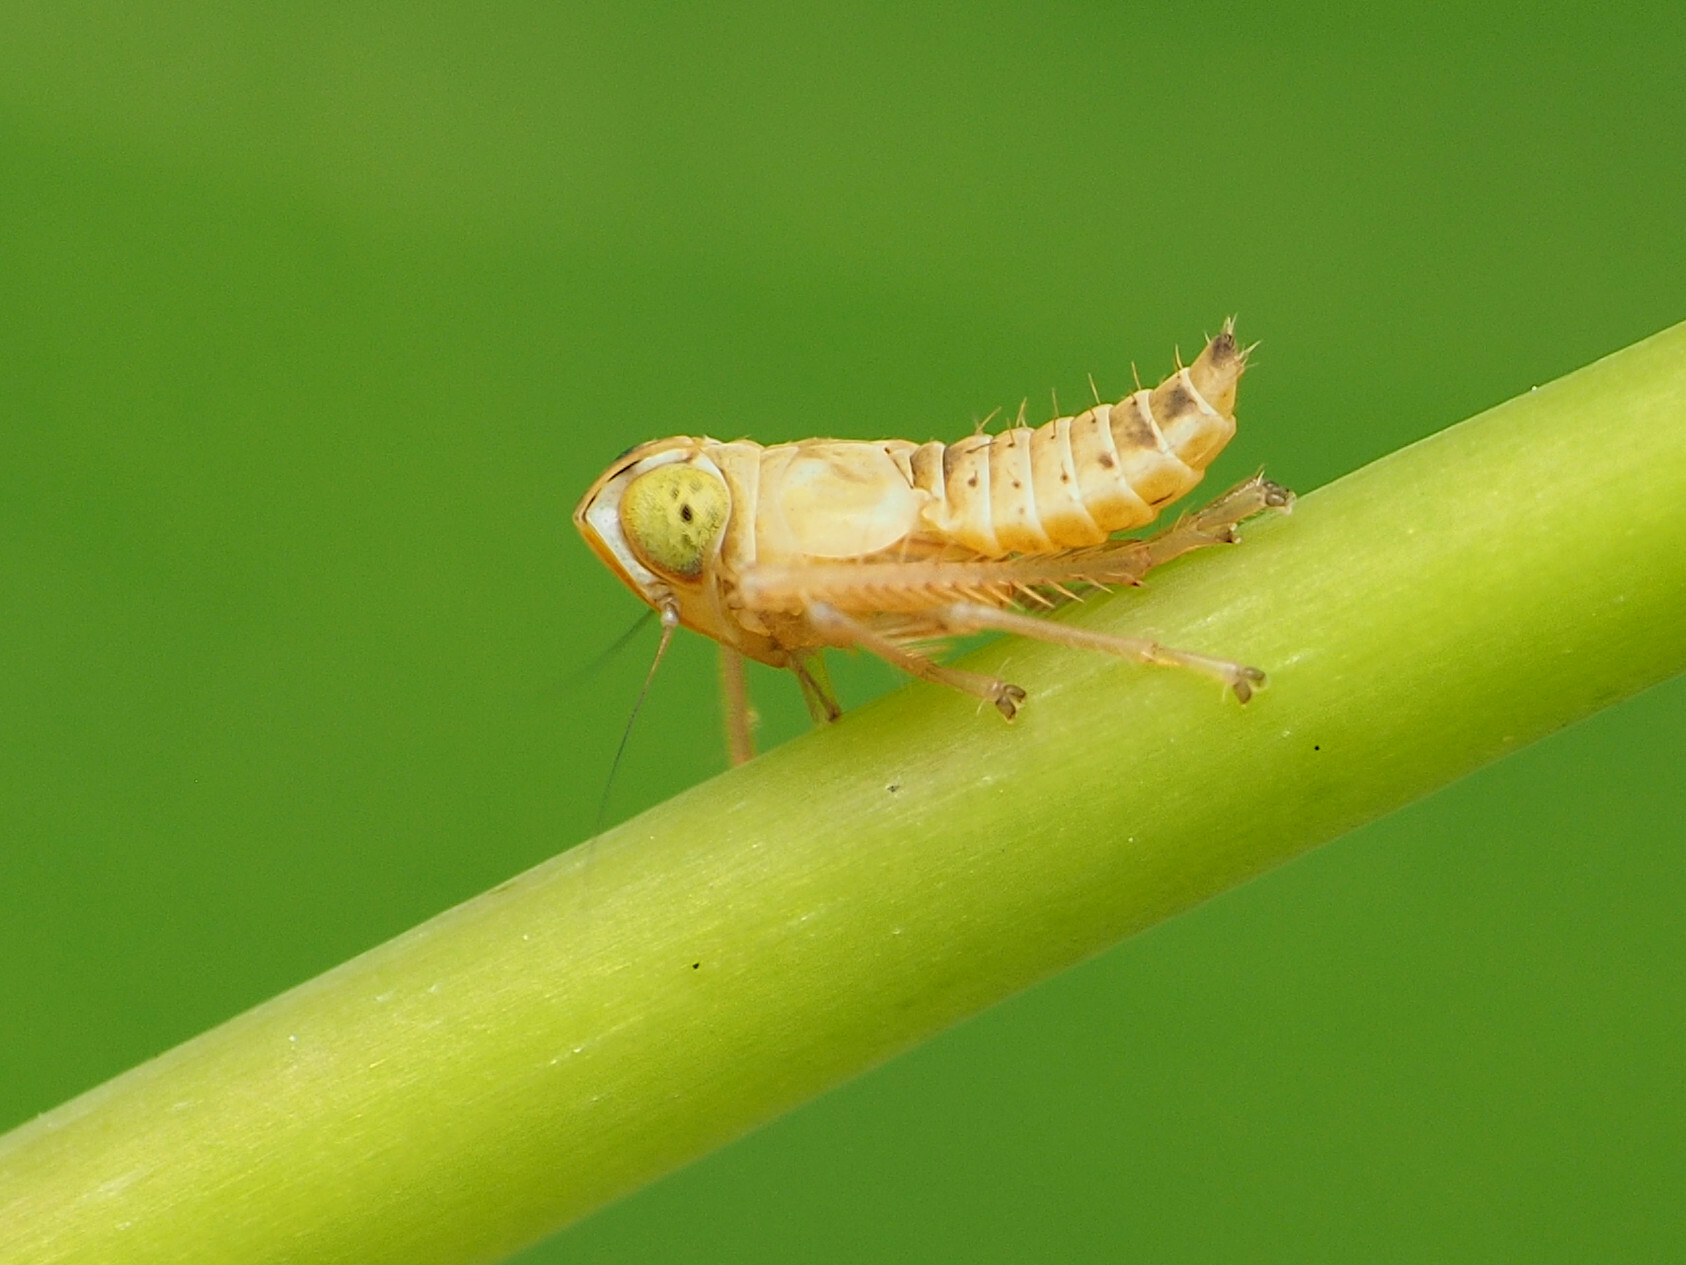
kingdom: Animalia
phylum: Arthropoda
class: Insecta
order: Hemiptera
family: Cicadellidae
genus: Jikradia
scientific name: Jikradia olitoria
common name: Coppery leafhopper
